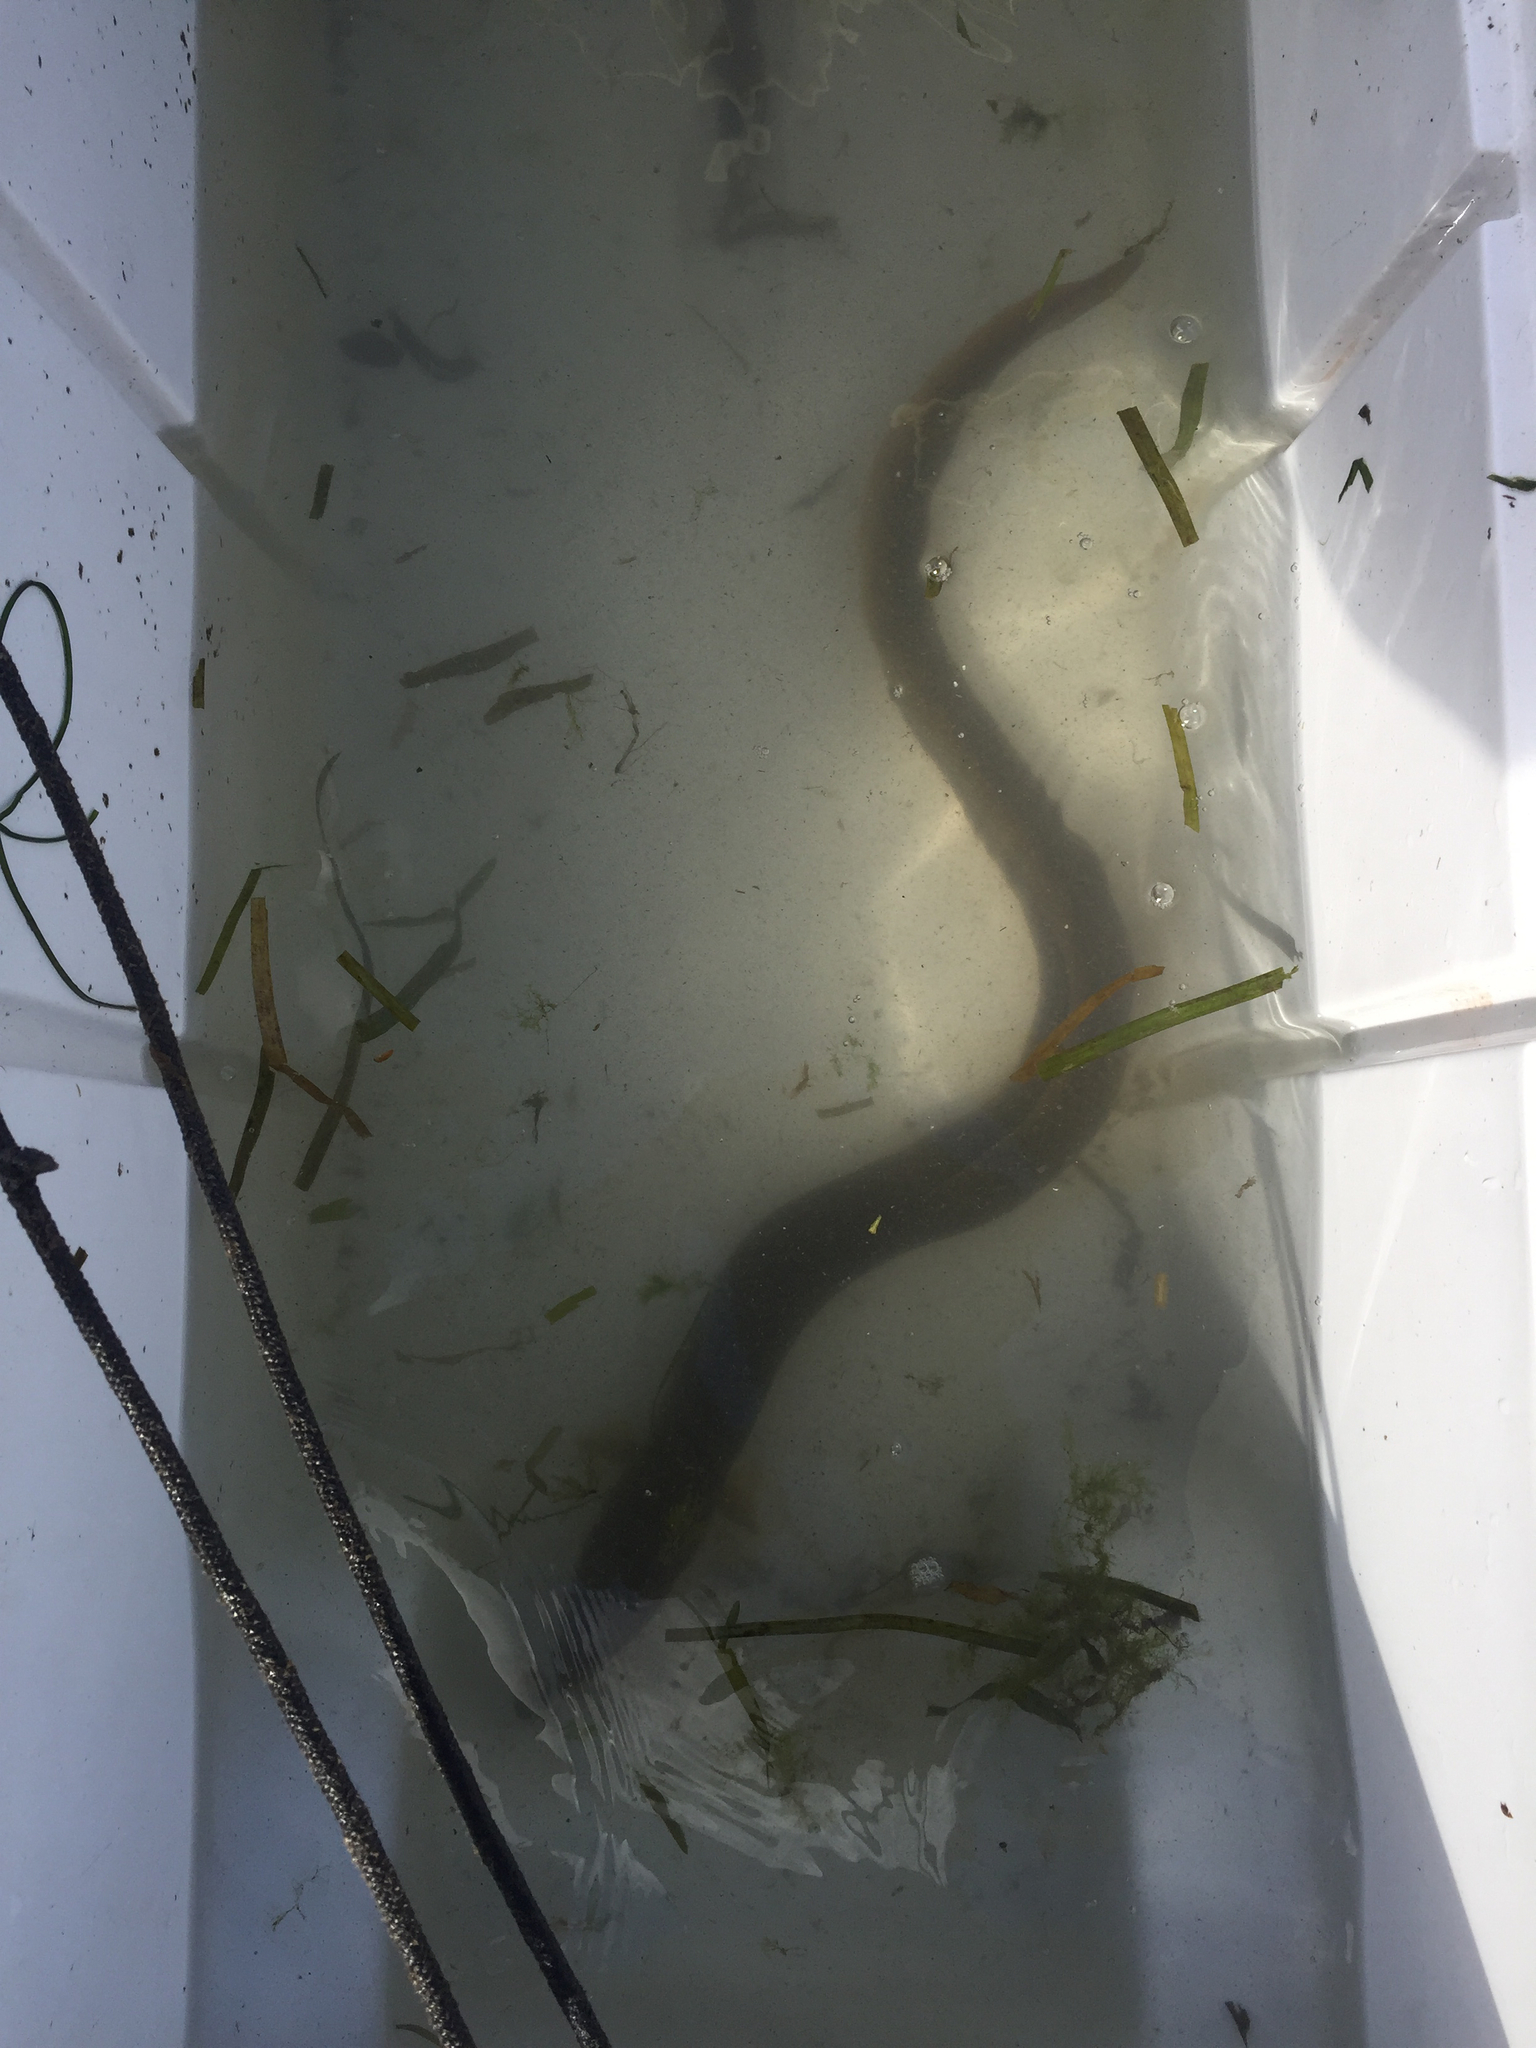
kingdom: Animalia
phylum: Chordata
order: Anguilliformes
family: Anguillidae
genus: Anguilla
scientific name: Anguilla rostrata
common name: American eel
